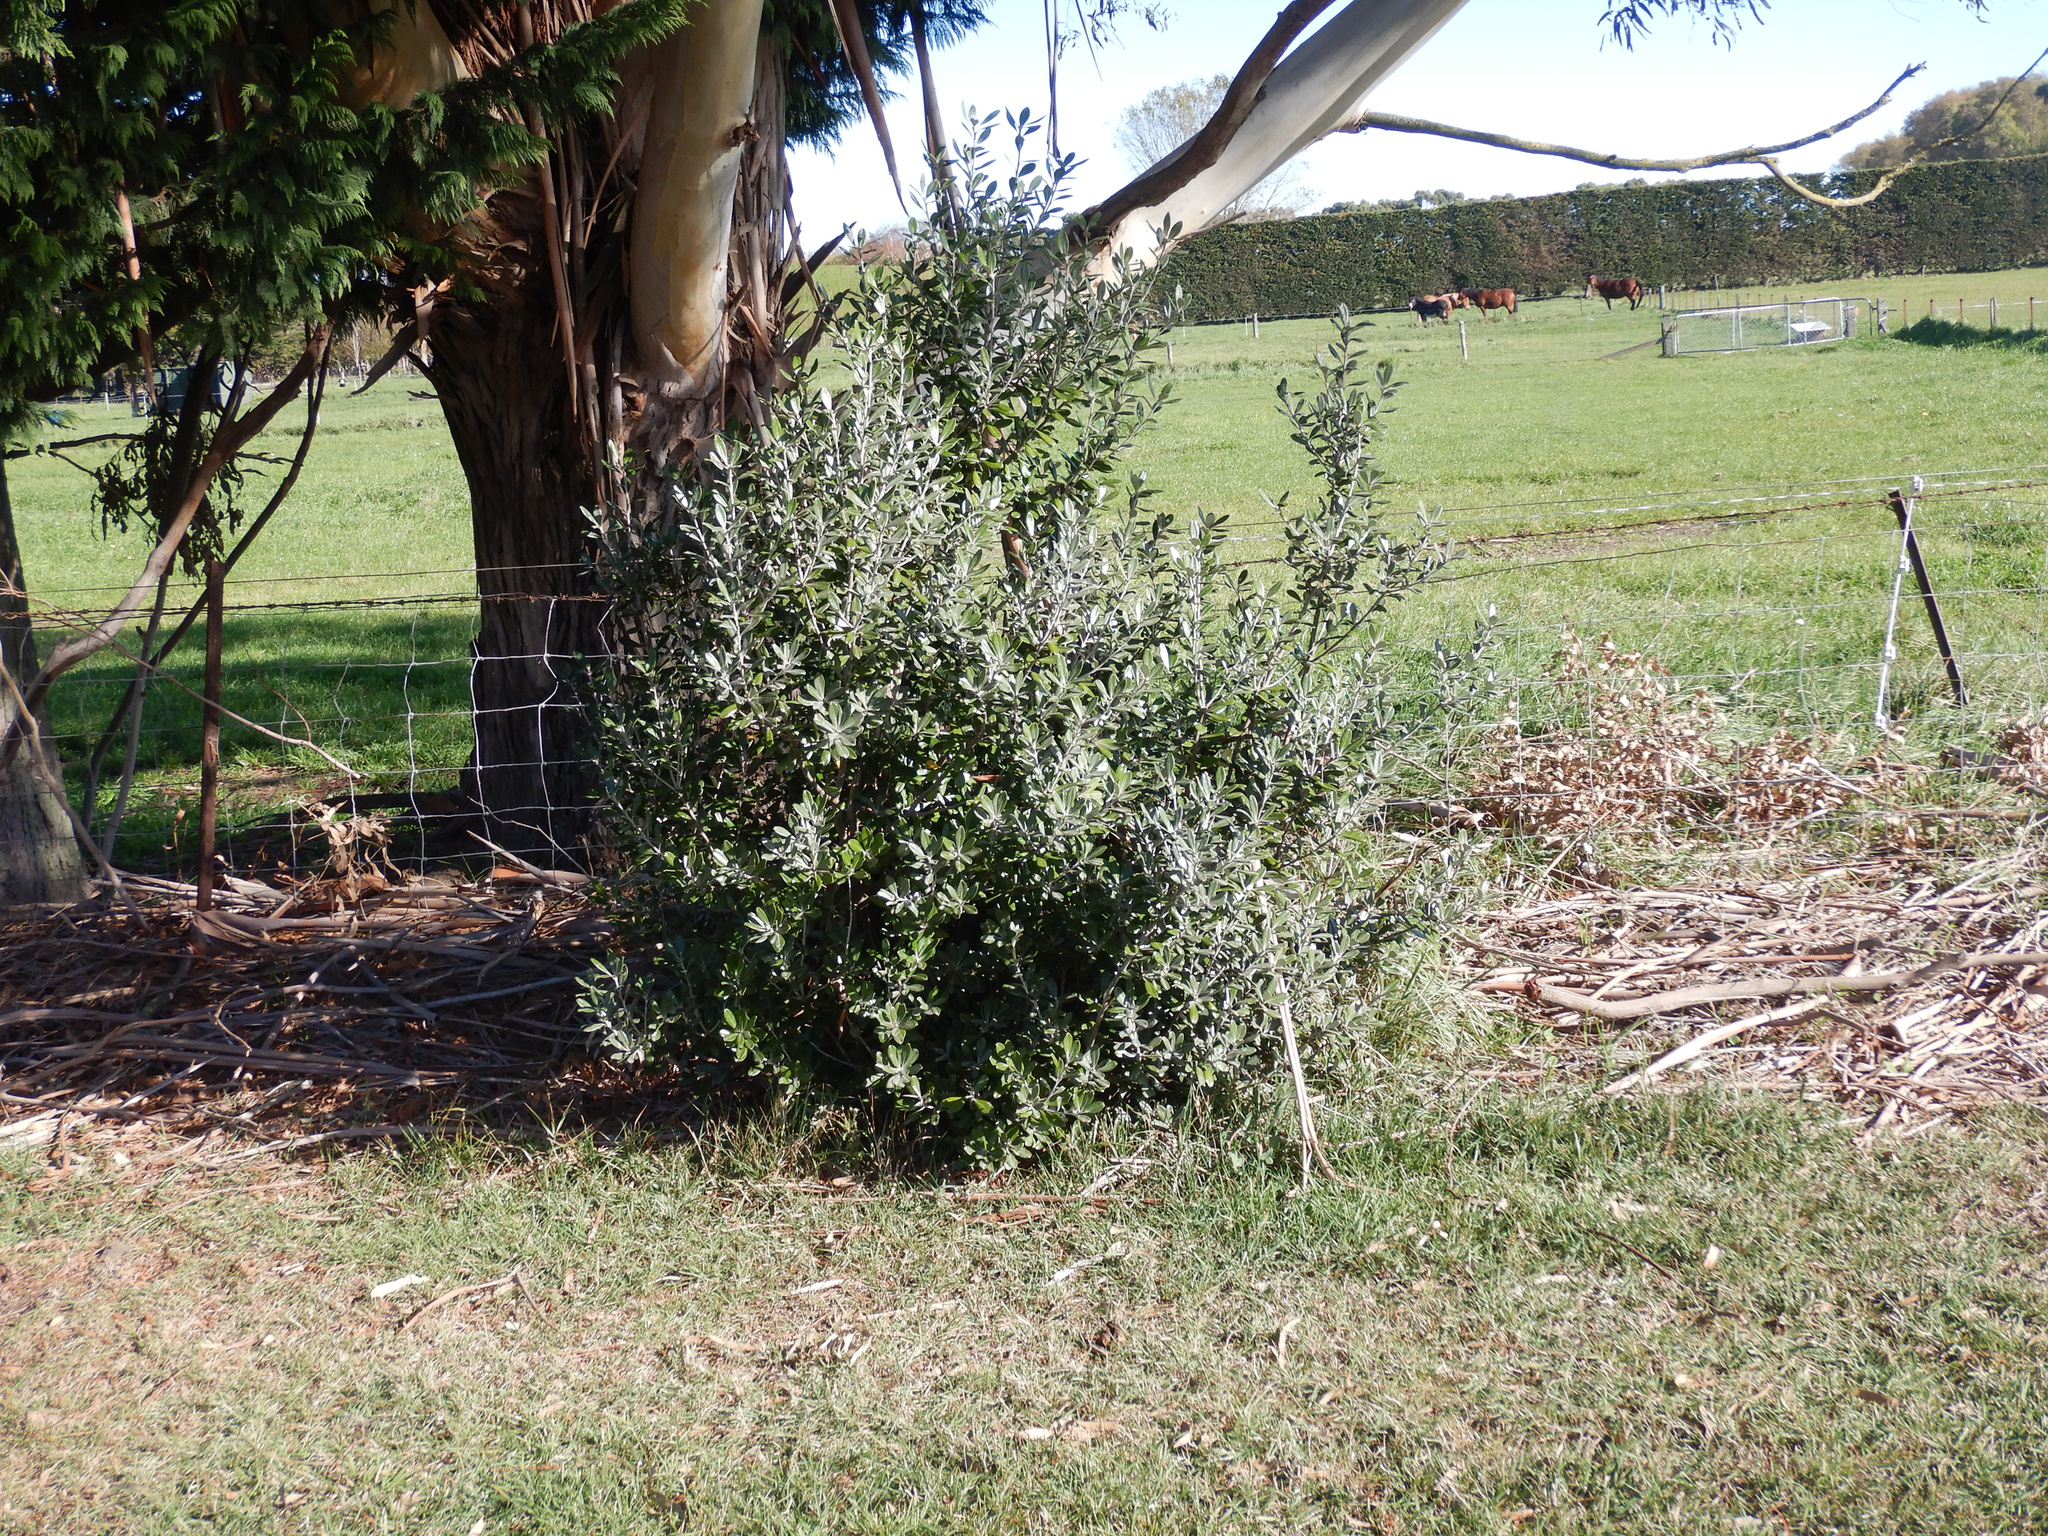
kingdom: Plantae
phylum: Tracheophyta
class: Magnoliopsida
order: Apiales
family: Pittosporaceae
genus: Pittosporum
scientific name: Pittosporum crassifolium
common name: Karo
